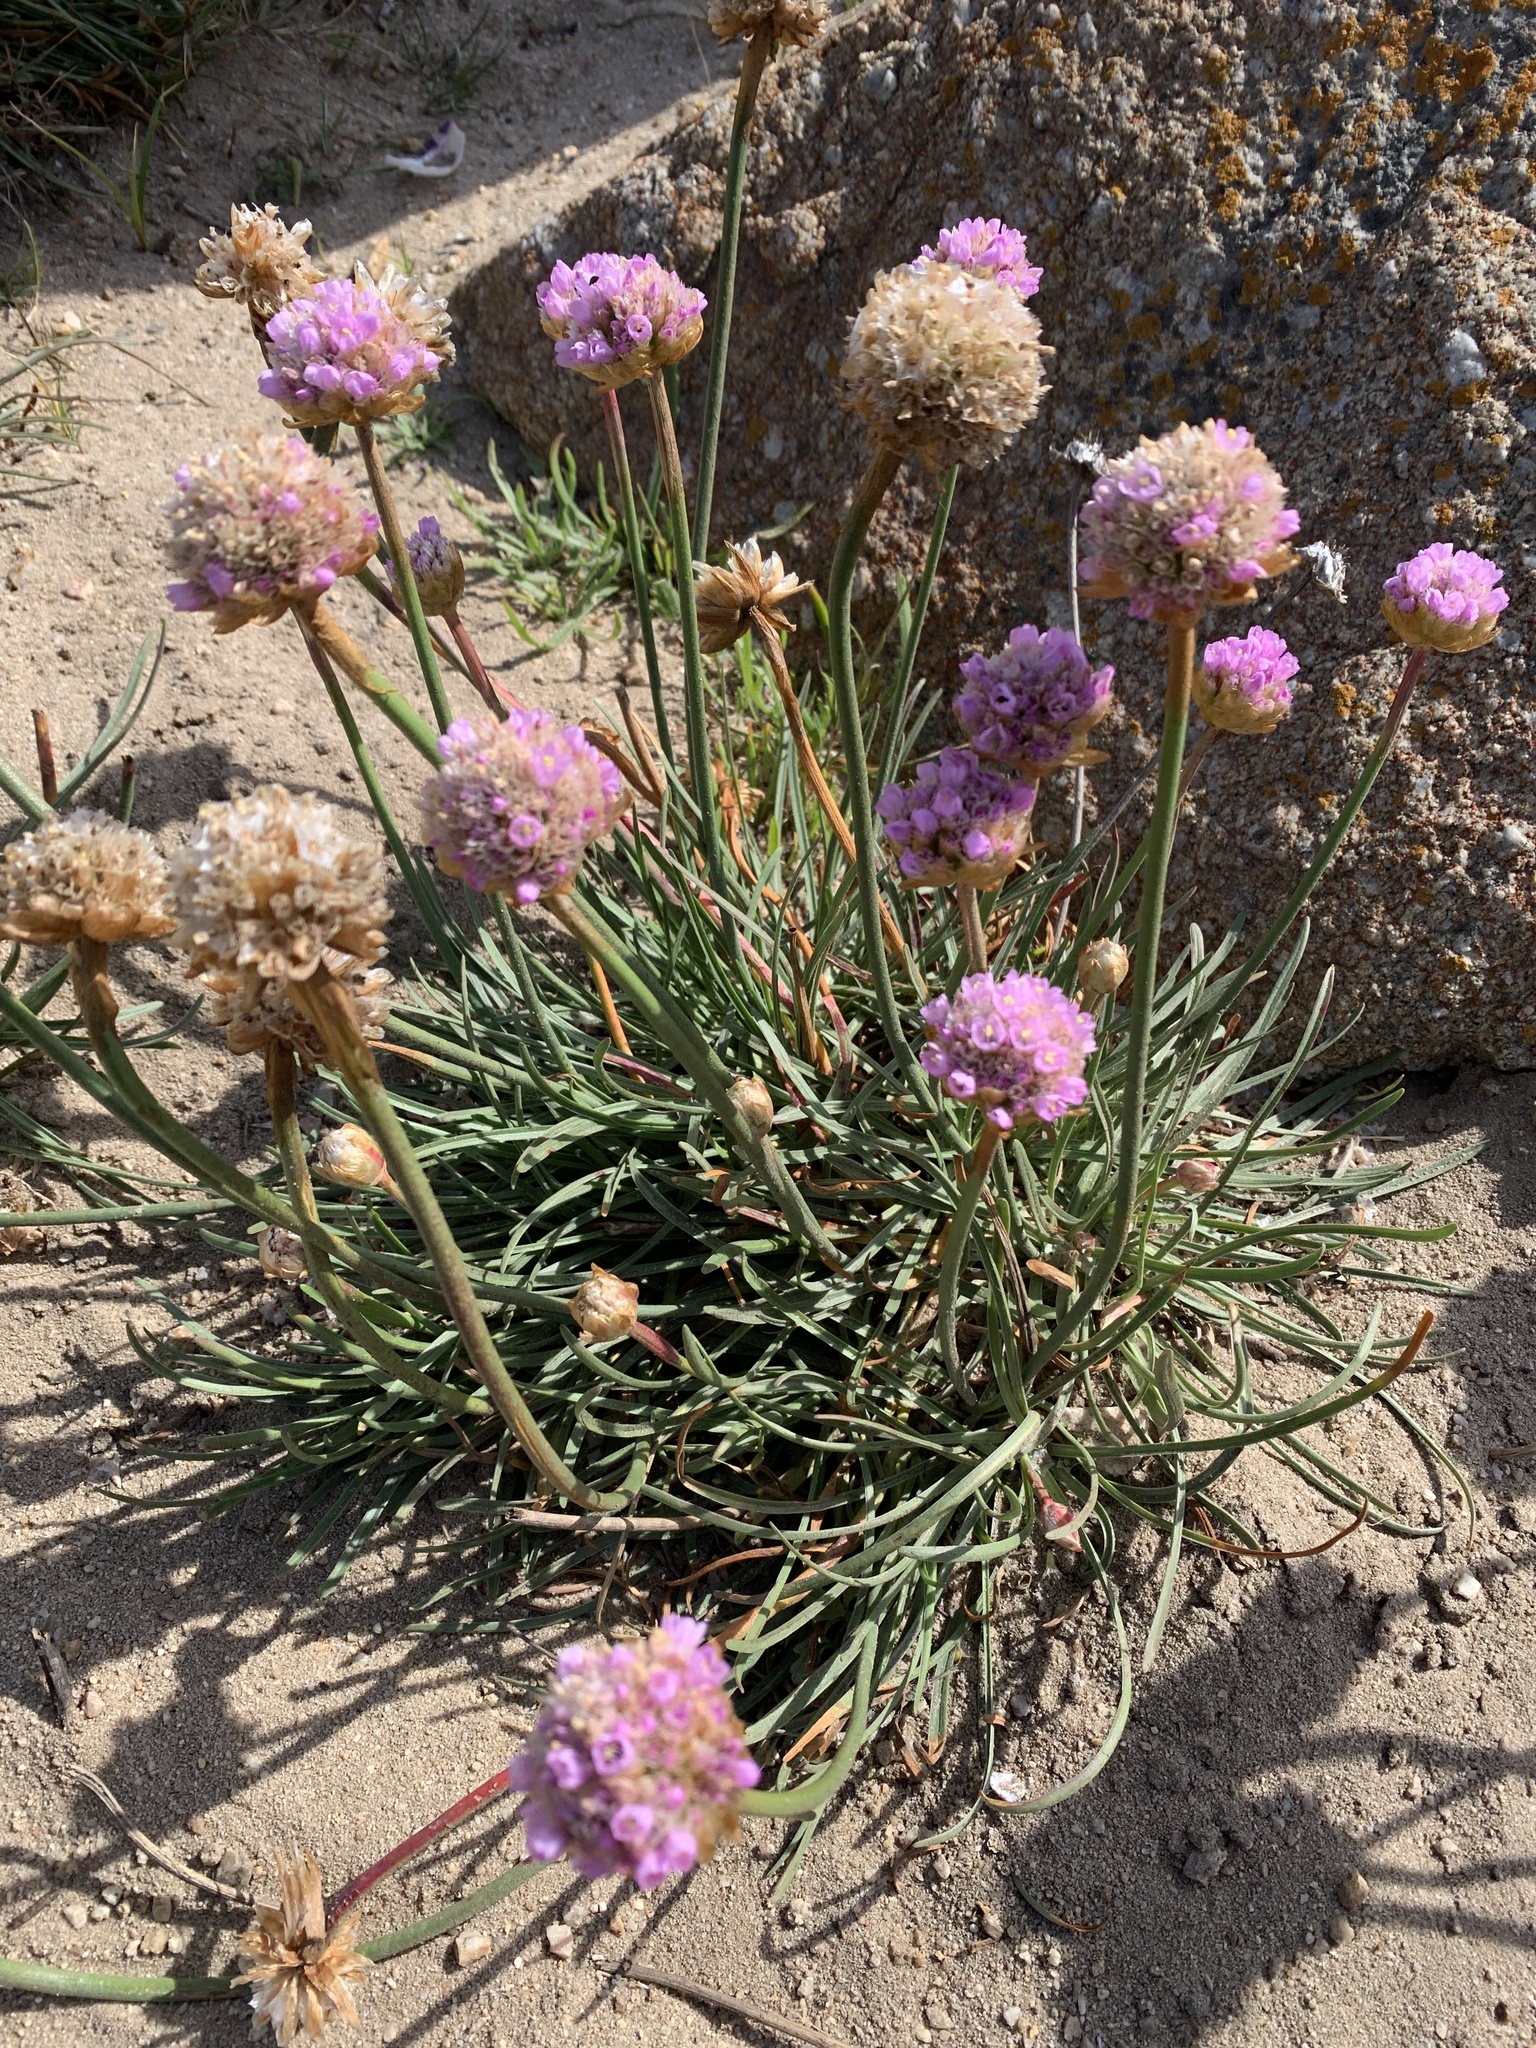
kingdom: Plantae
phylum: Tracheophyta
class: Magnoliopsida
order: Caryophyllales
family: Plumbaginaceae
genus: Armeria
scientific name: Armeria maritima
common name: Thrift
